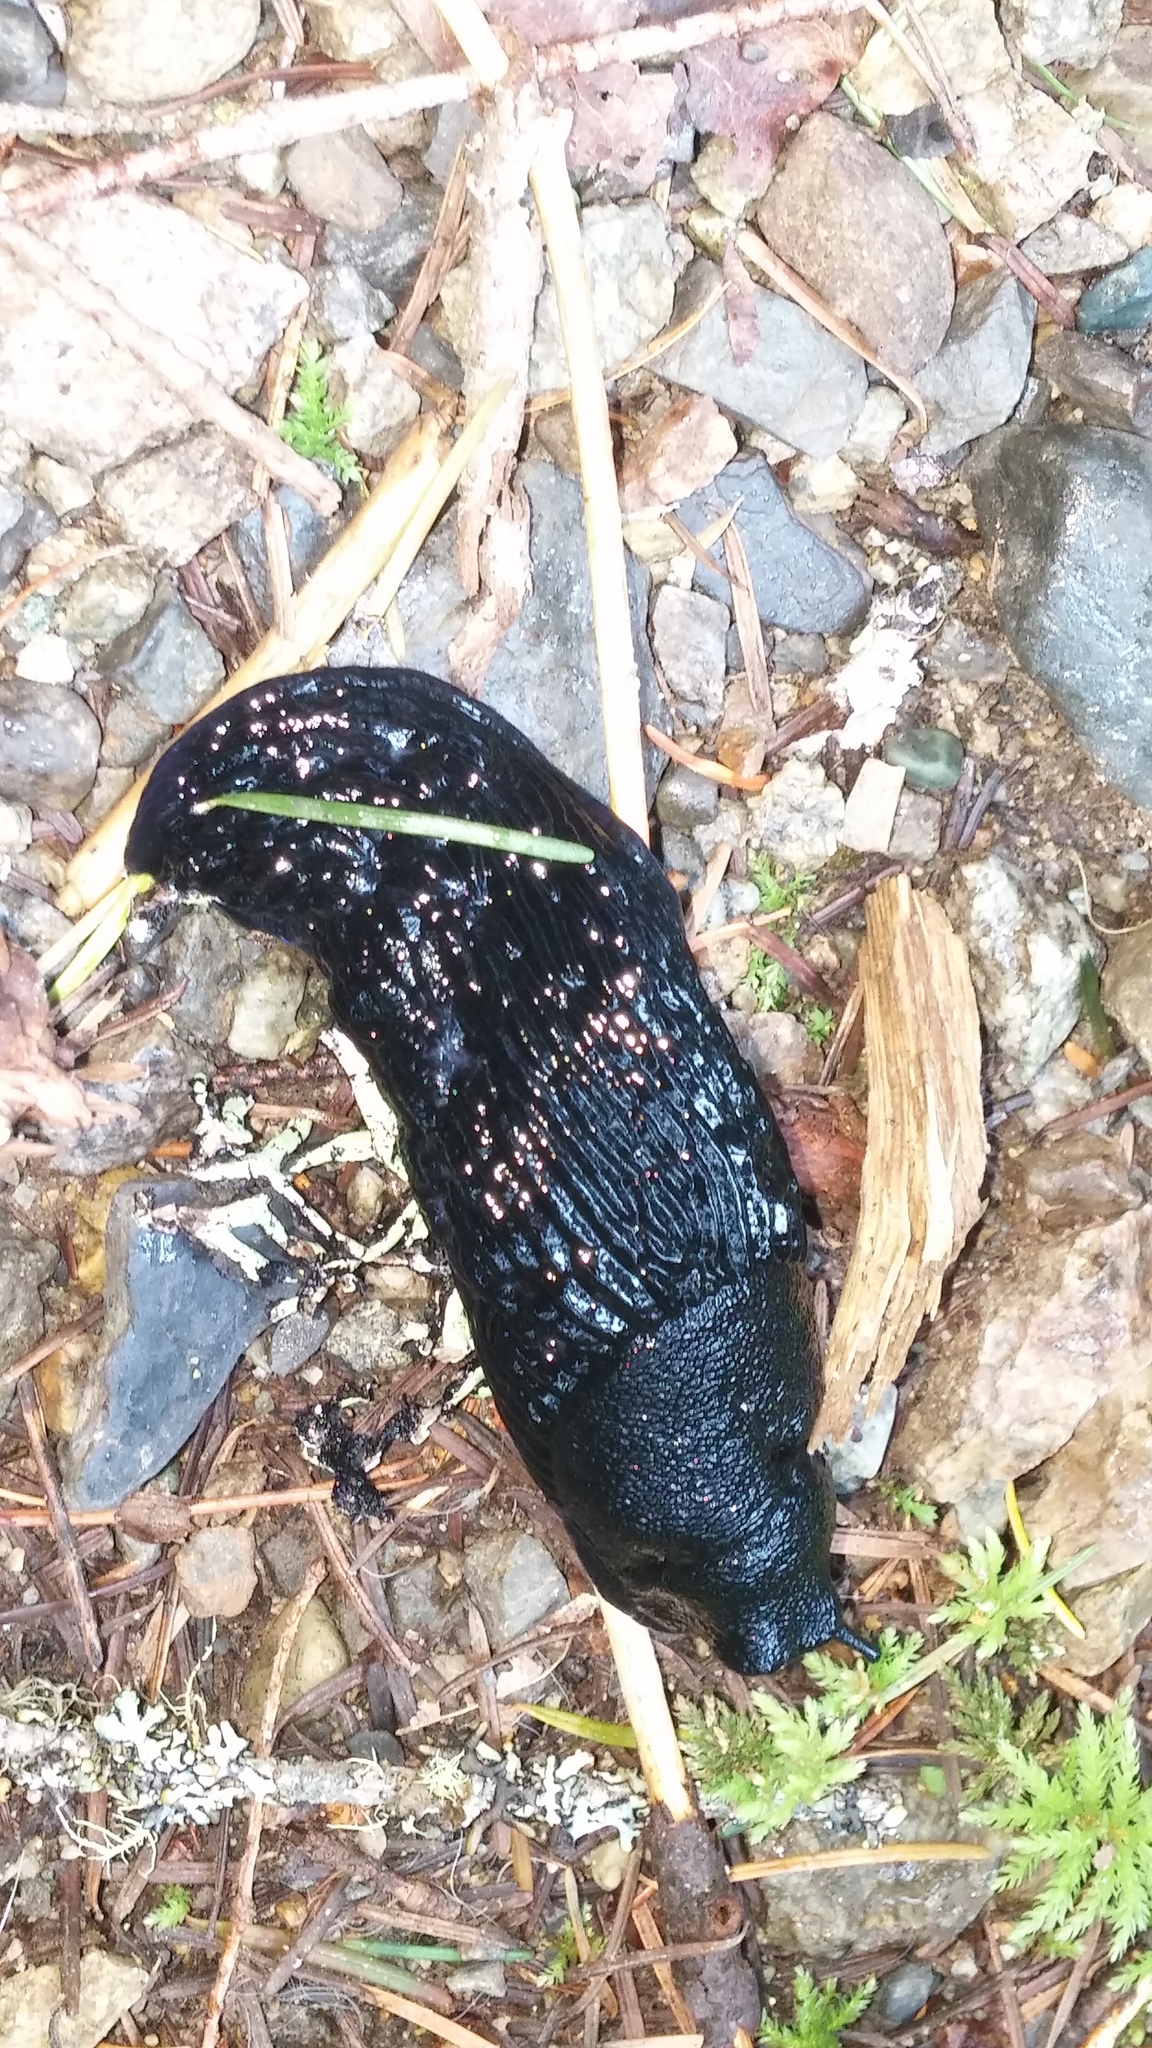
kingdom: Animalia
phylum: Mollusca
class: Gastropoda
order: Stylommatophora
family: Arionidae
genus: Arion
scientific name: Arion
